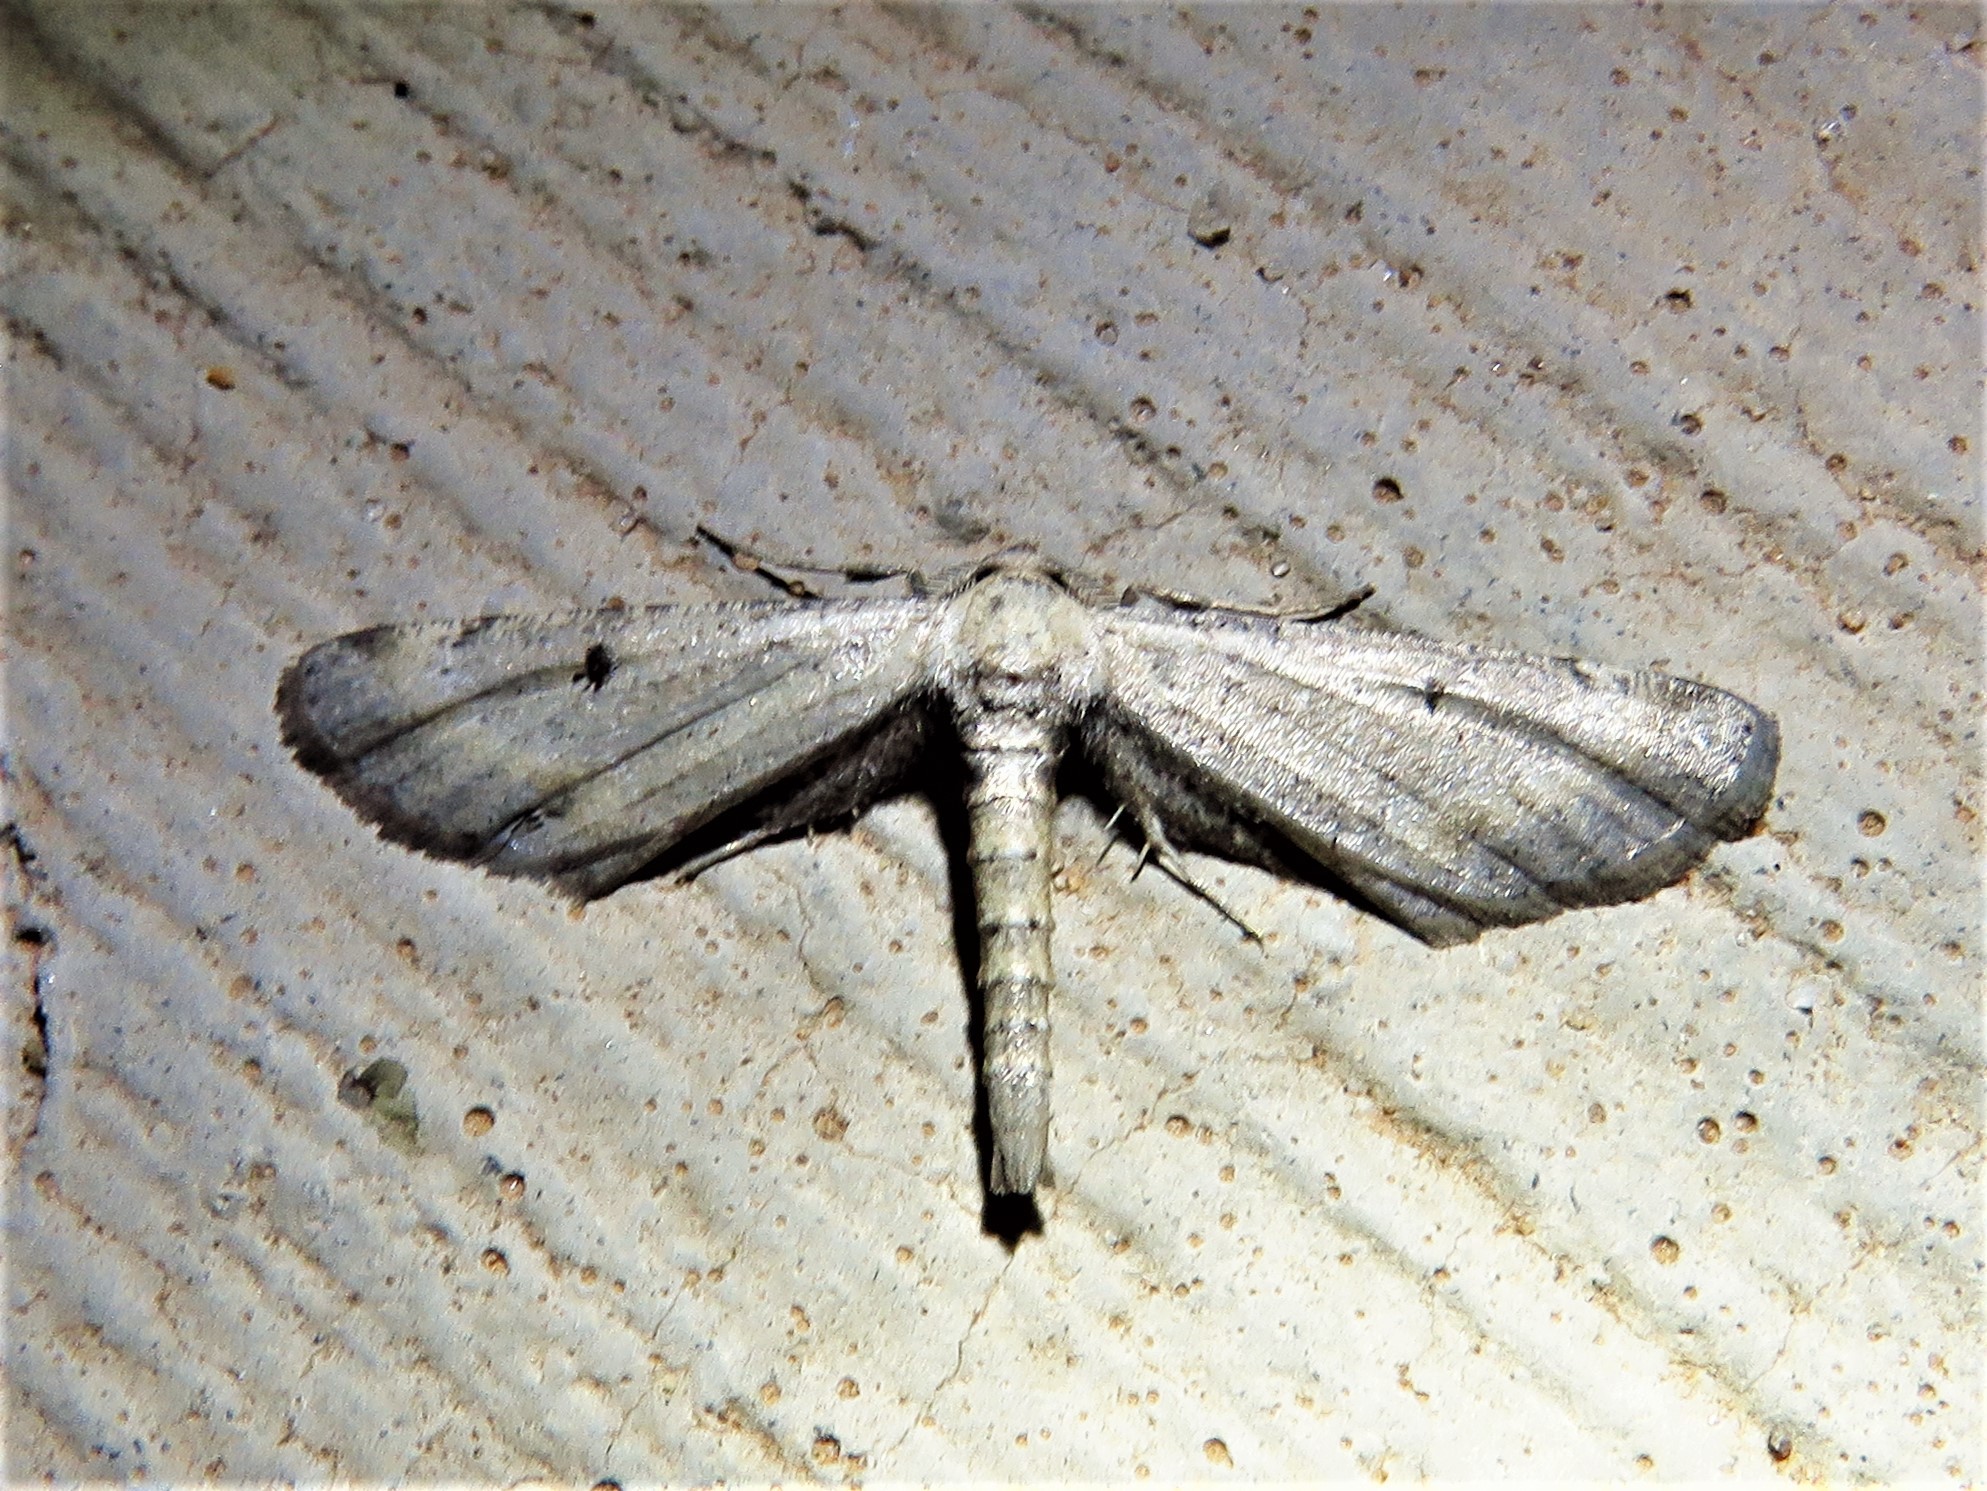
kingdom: Animalia
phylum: Arthropoda
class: Insecta
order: Lepidoptera
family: Geometridae
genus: Tornos
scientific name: Tornos scolopacinaria
